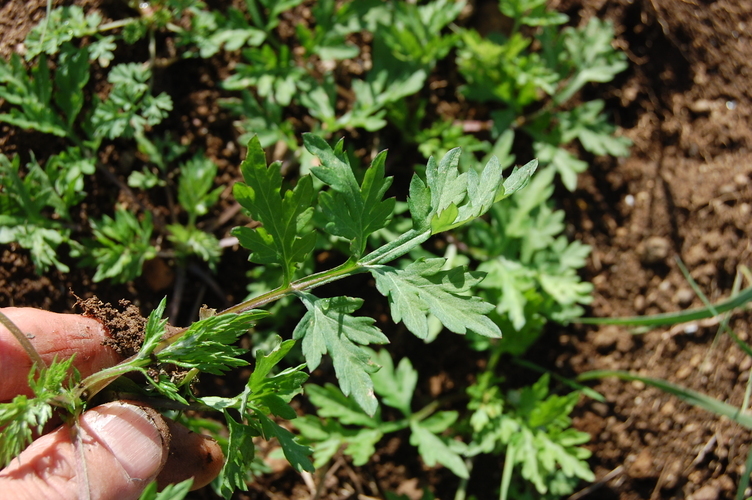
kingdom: Plantae
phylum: Tracheophyta
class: Magnoliopsida
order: Asterales
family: Asteraceae
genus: Artemisia
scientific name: Artemisia vulgaris
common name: Mugwort
